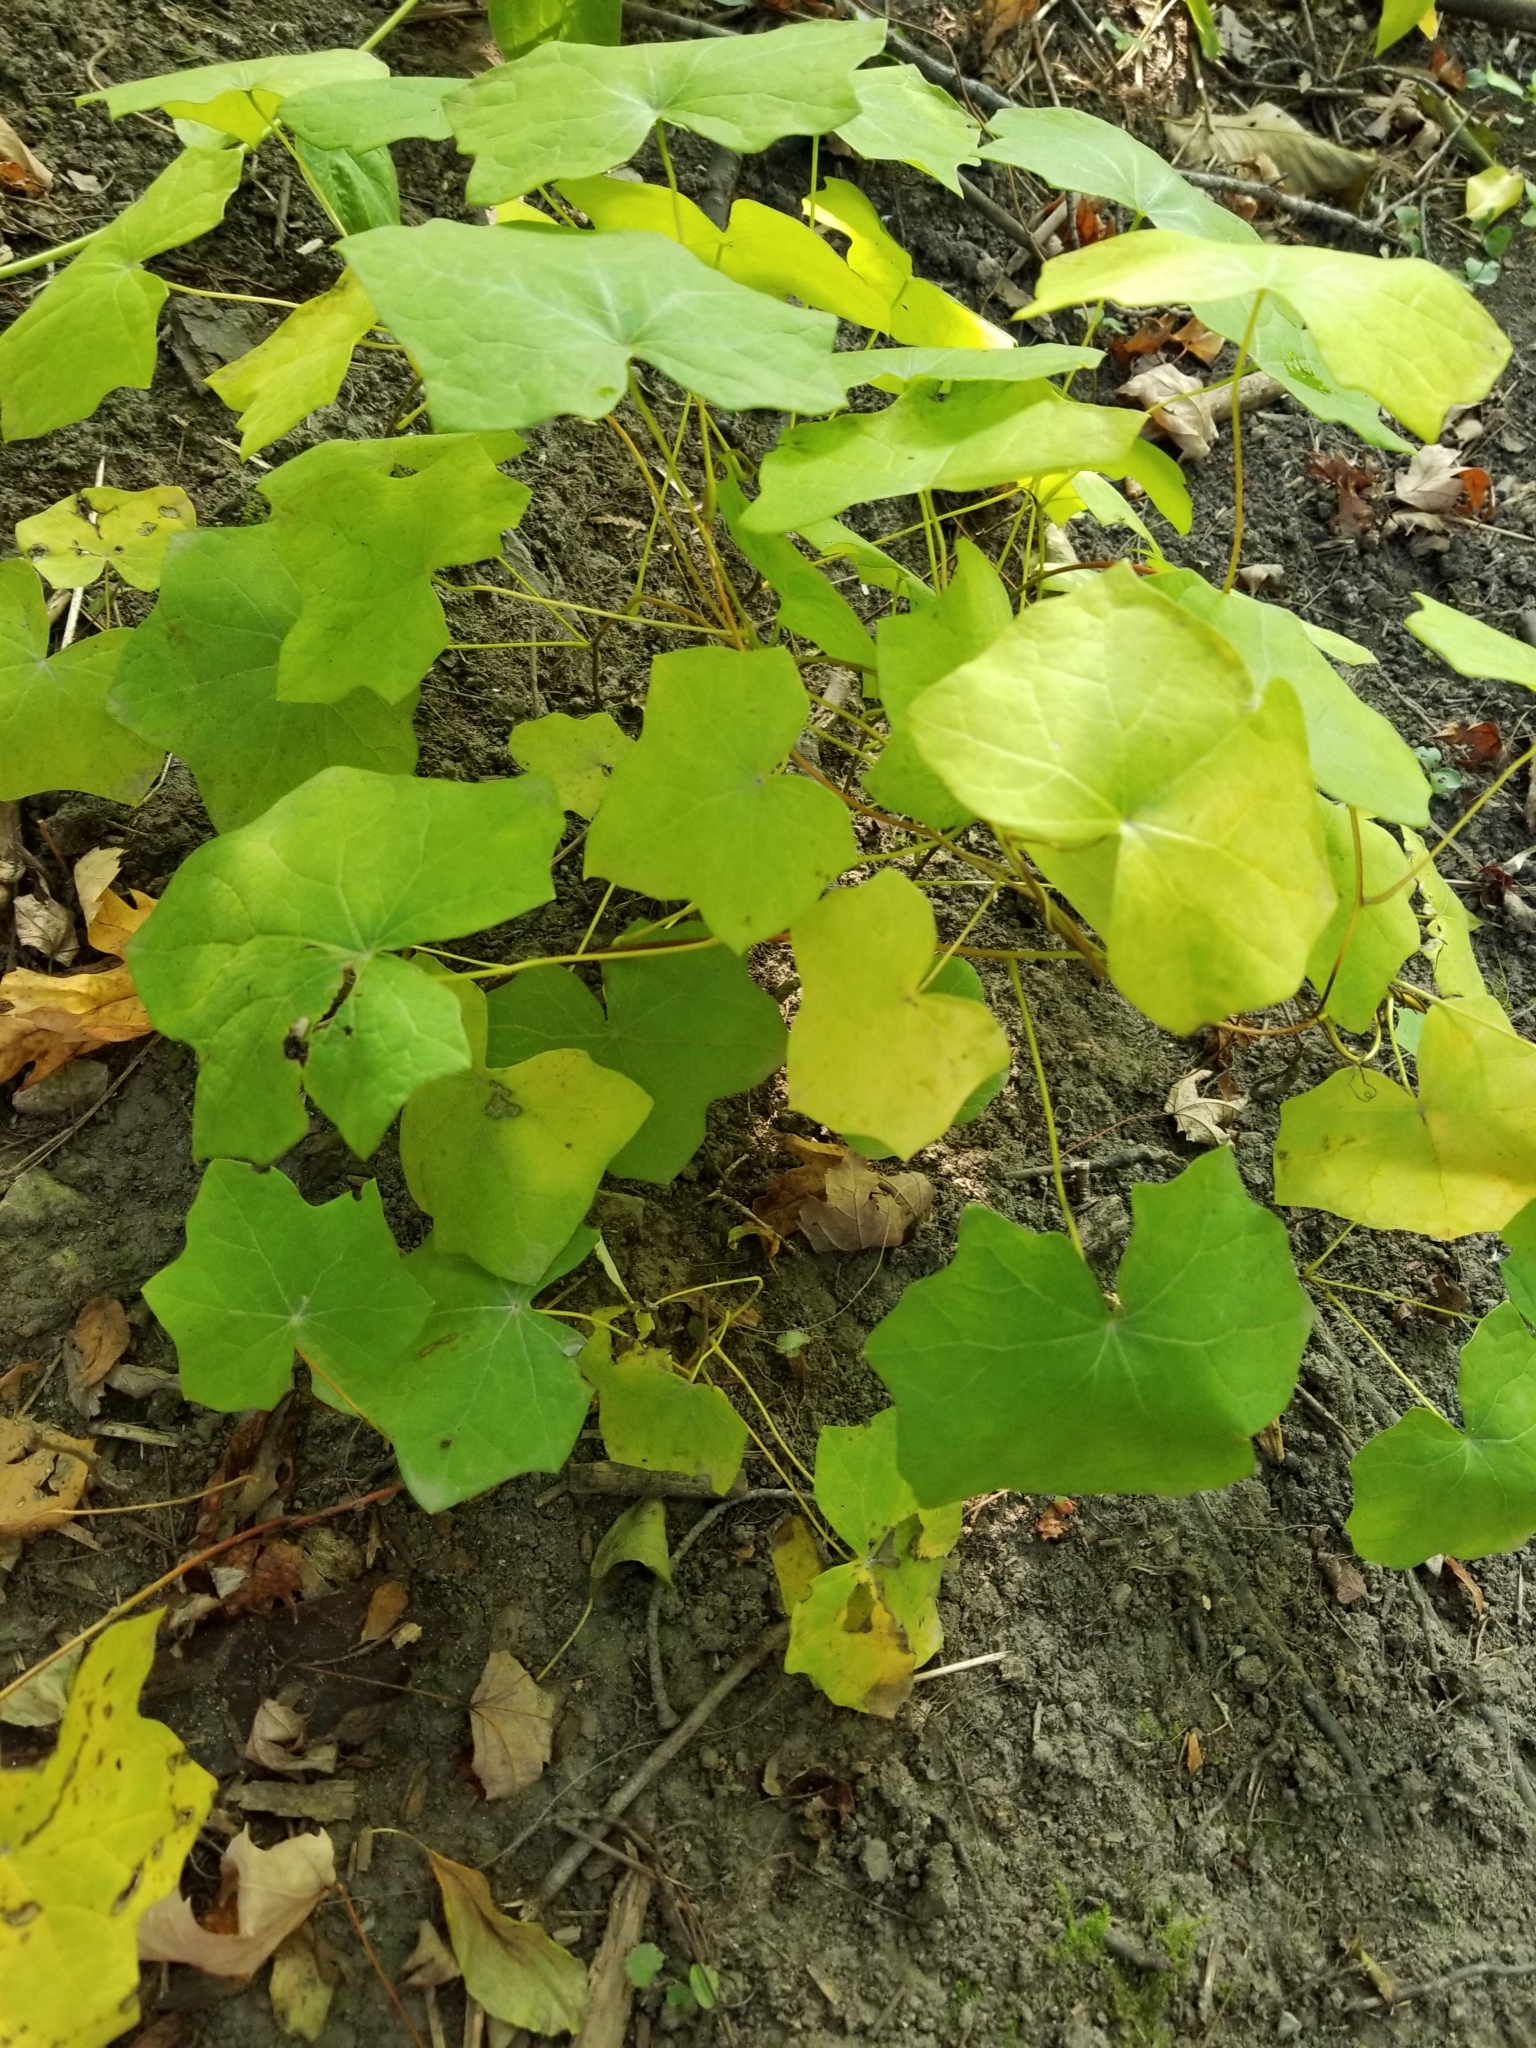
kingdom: Plantae
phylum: Tracheophyta
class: Magnoliopsida
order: Ranunculales
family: Menispermaceae
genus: Menispermum
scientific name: Menispermum canadense
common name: Moonseed
